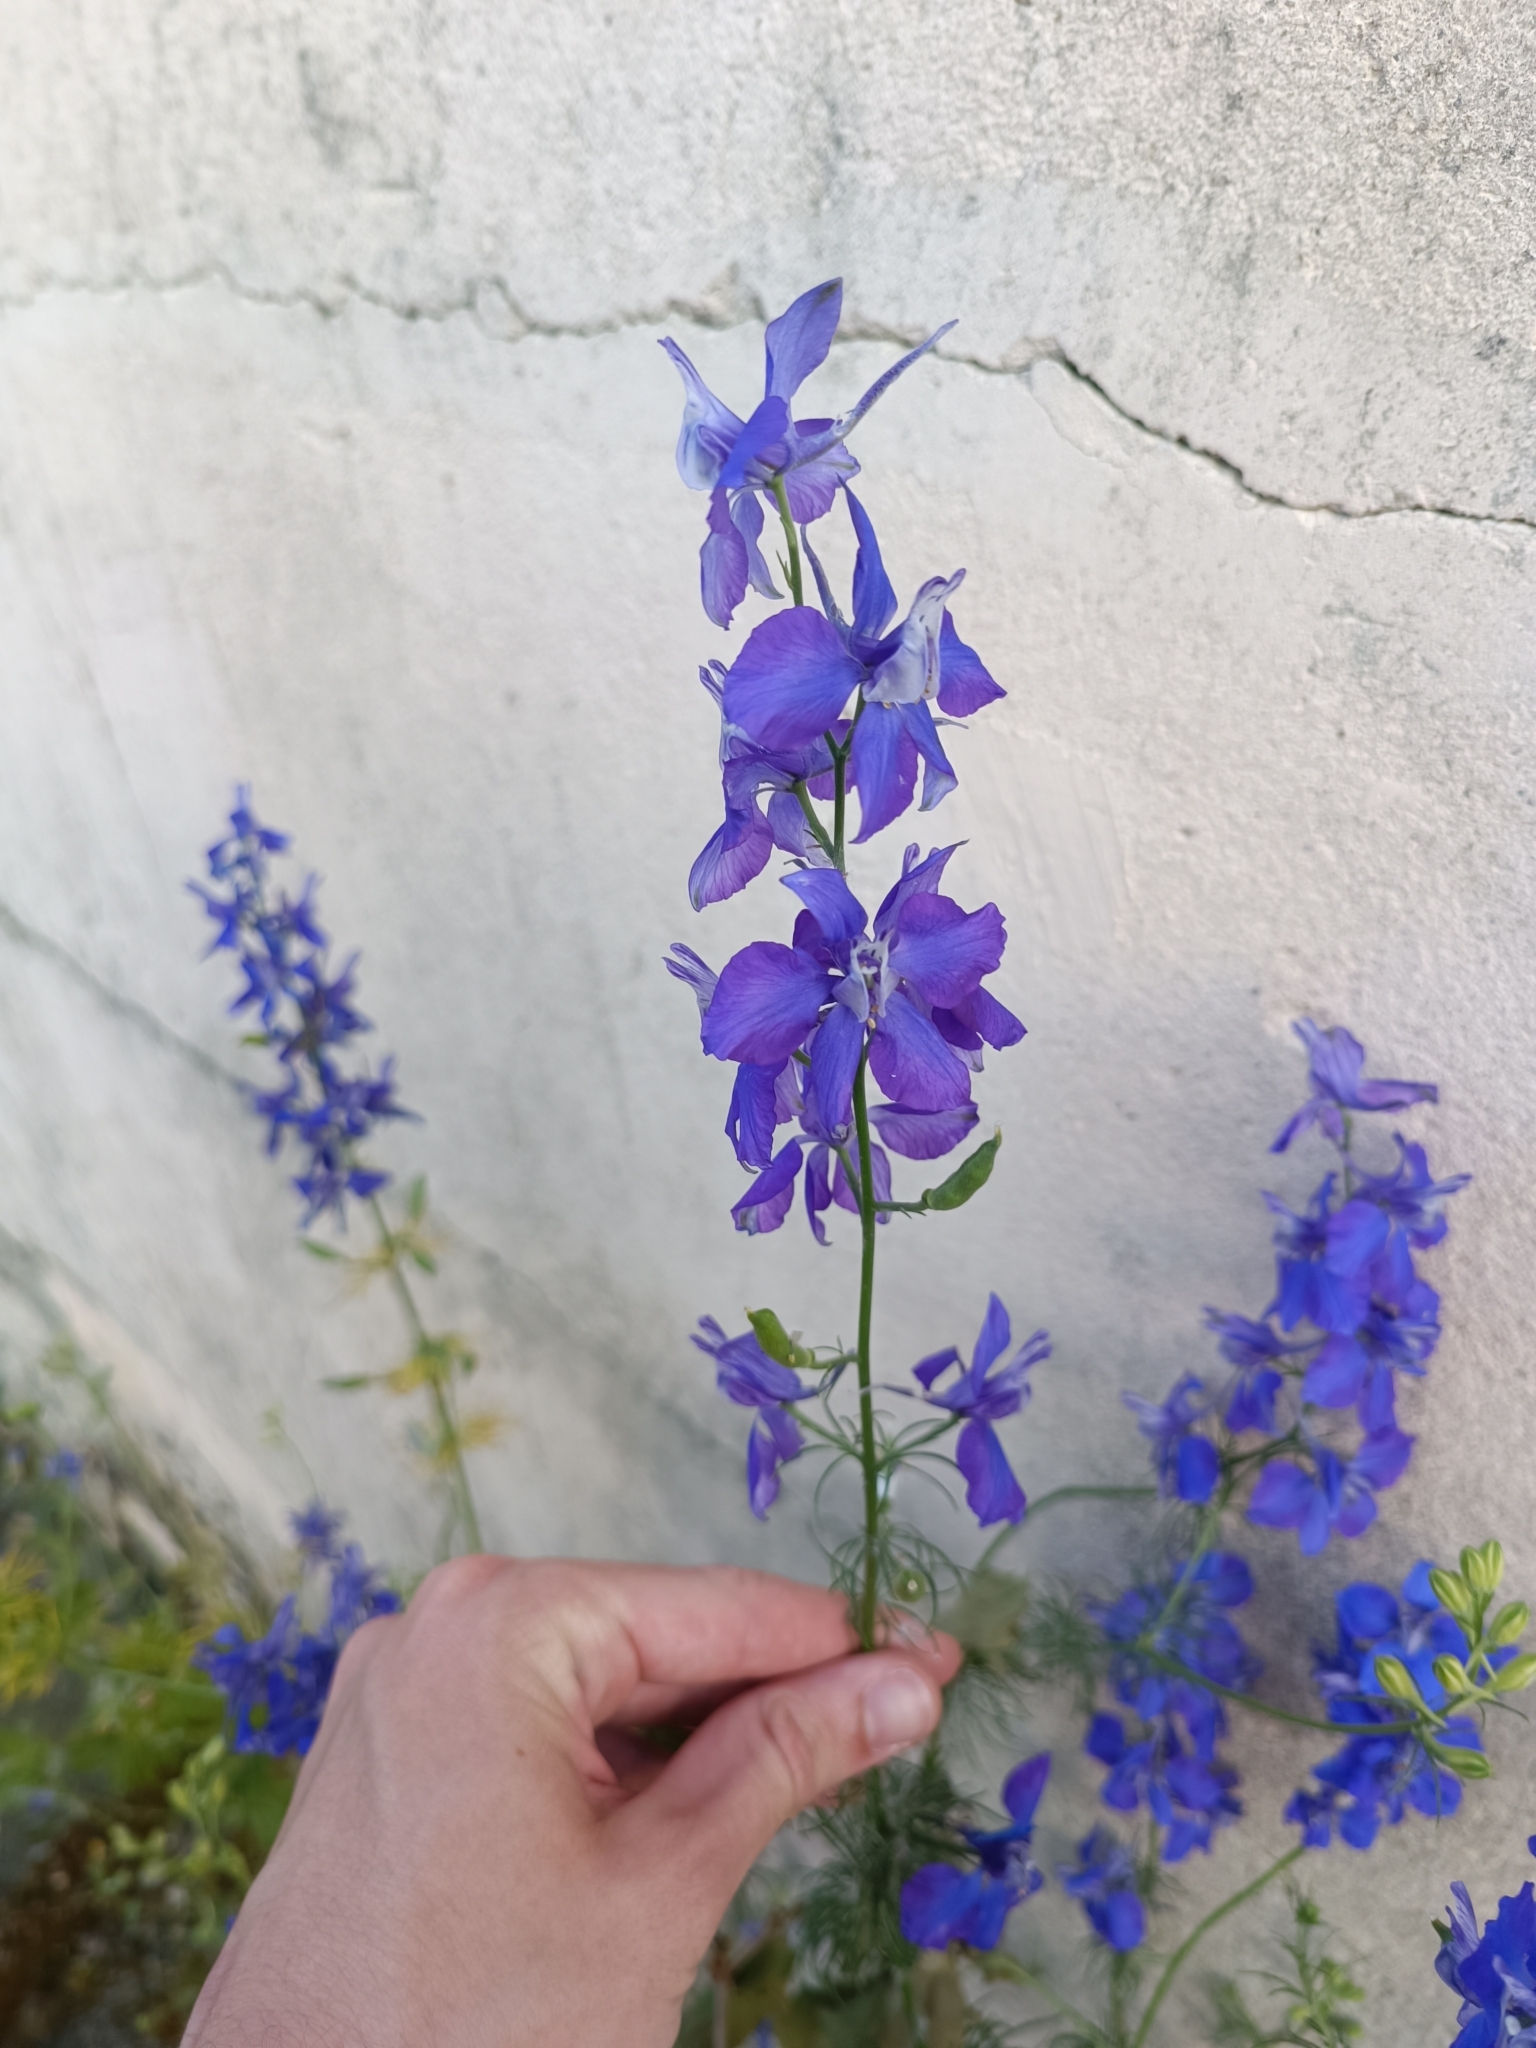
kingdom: Plantae
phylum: Tracheophyta
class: Magnoliopsida
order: Ranunculales
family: Ranunculaceae
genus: Delphinium
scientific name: Delphinium ajacis
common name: Doubtful knight's-spur
